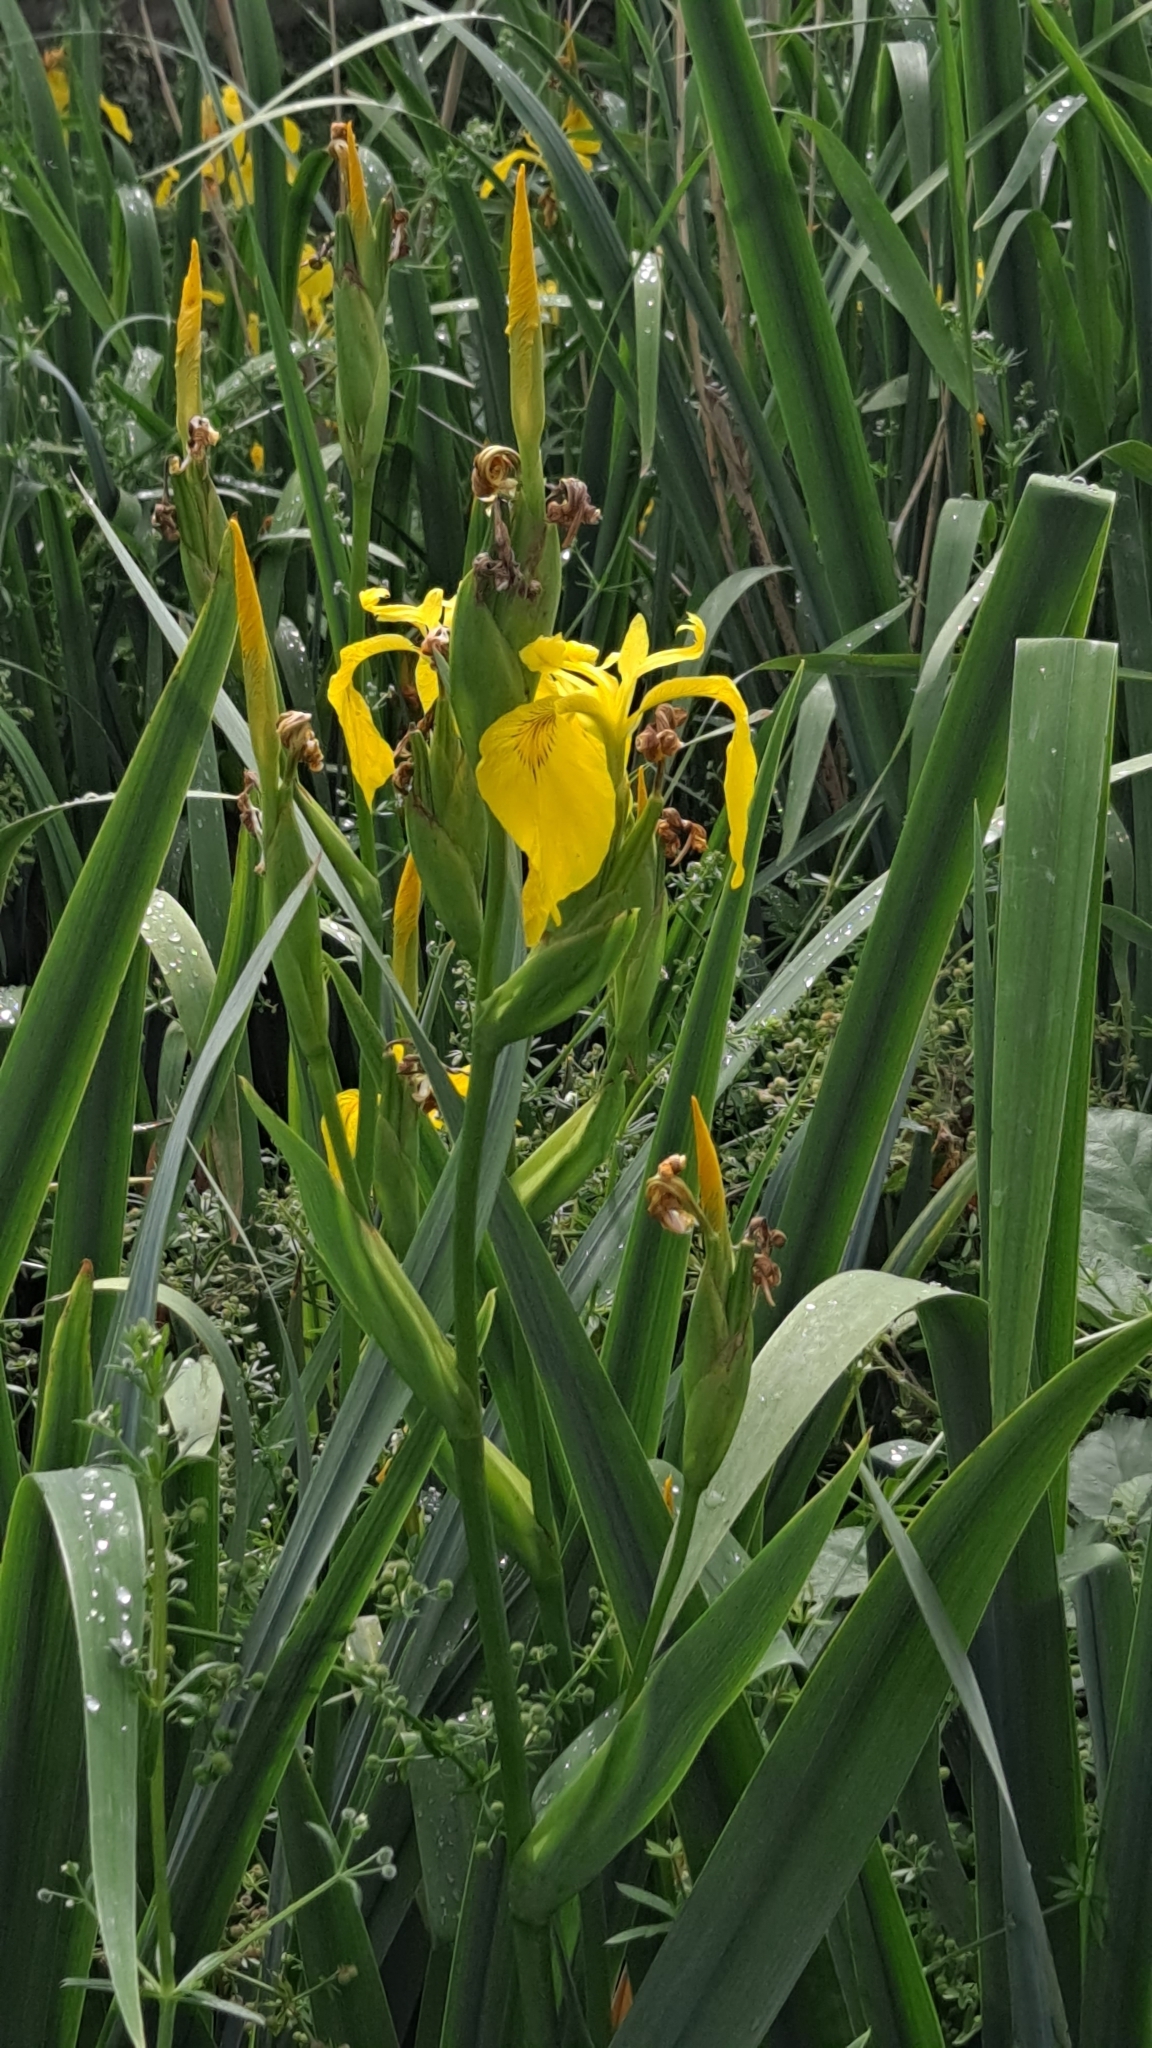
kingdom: Plantae
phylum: Tracheophyta
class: Liliopsida
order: Asparagales
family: Iridaceae
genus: Iris
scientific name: Iris pseudacorus
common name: Yellow flag
